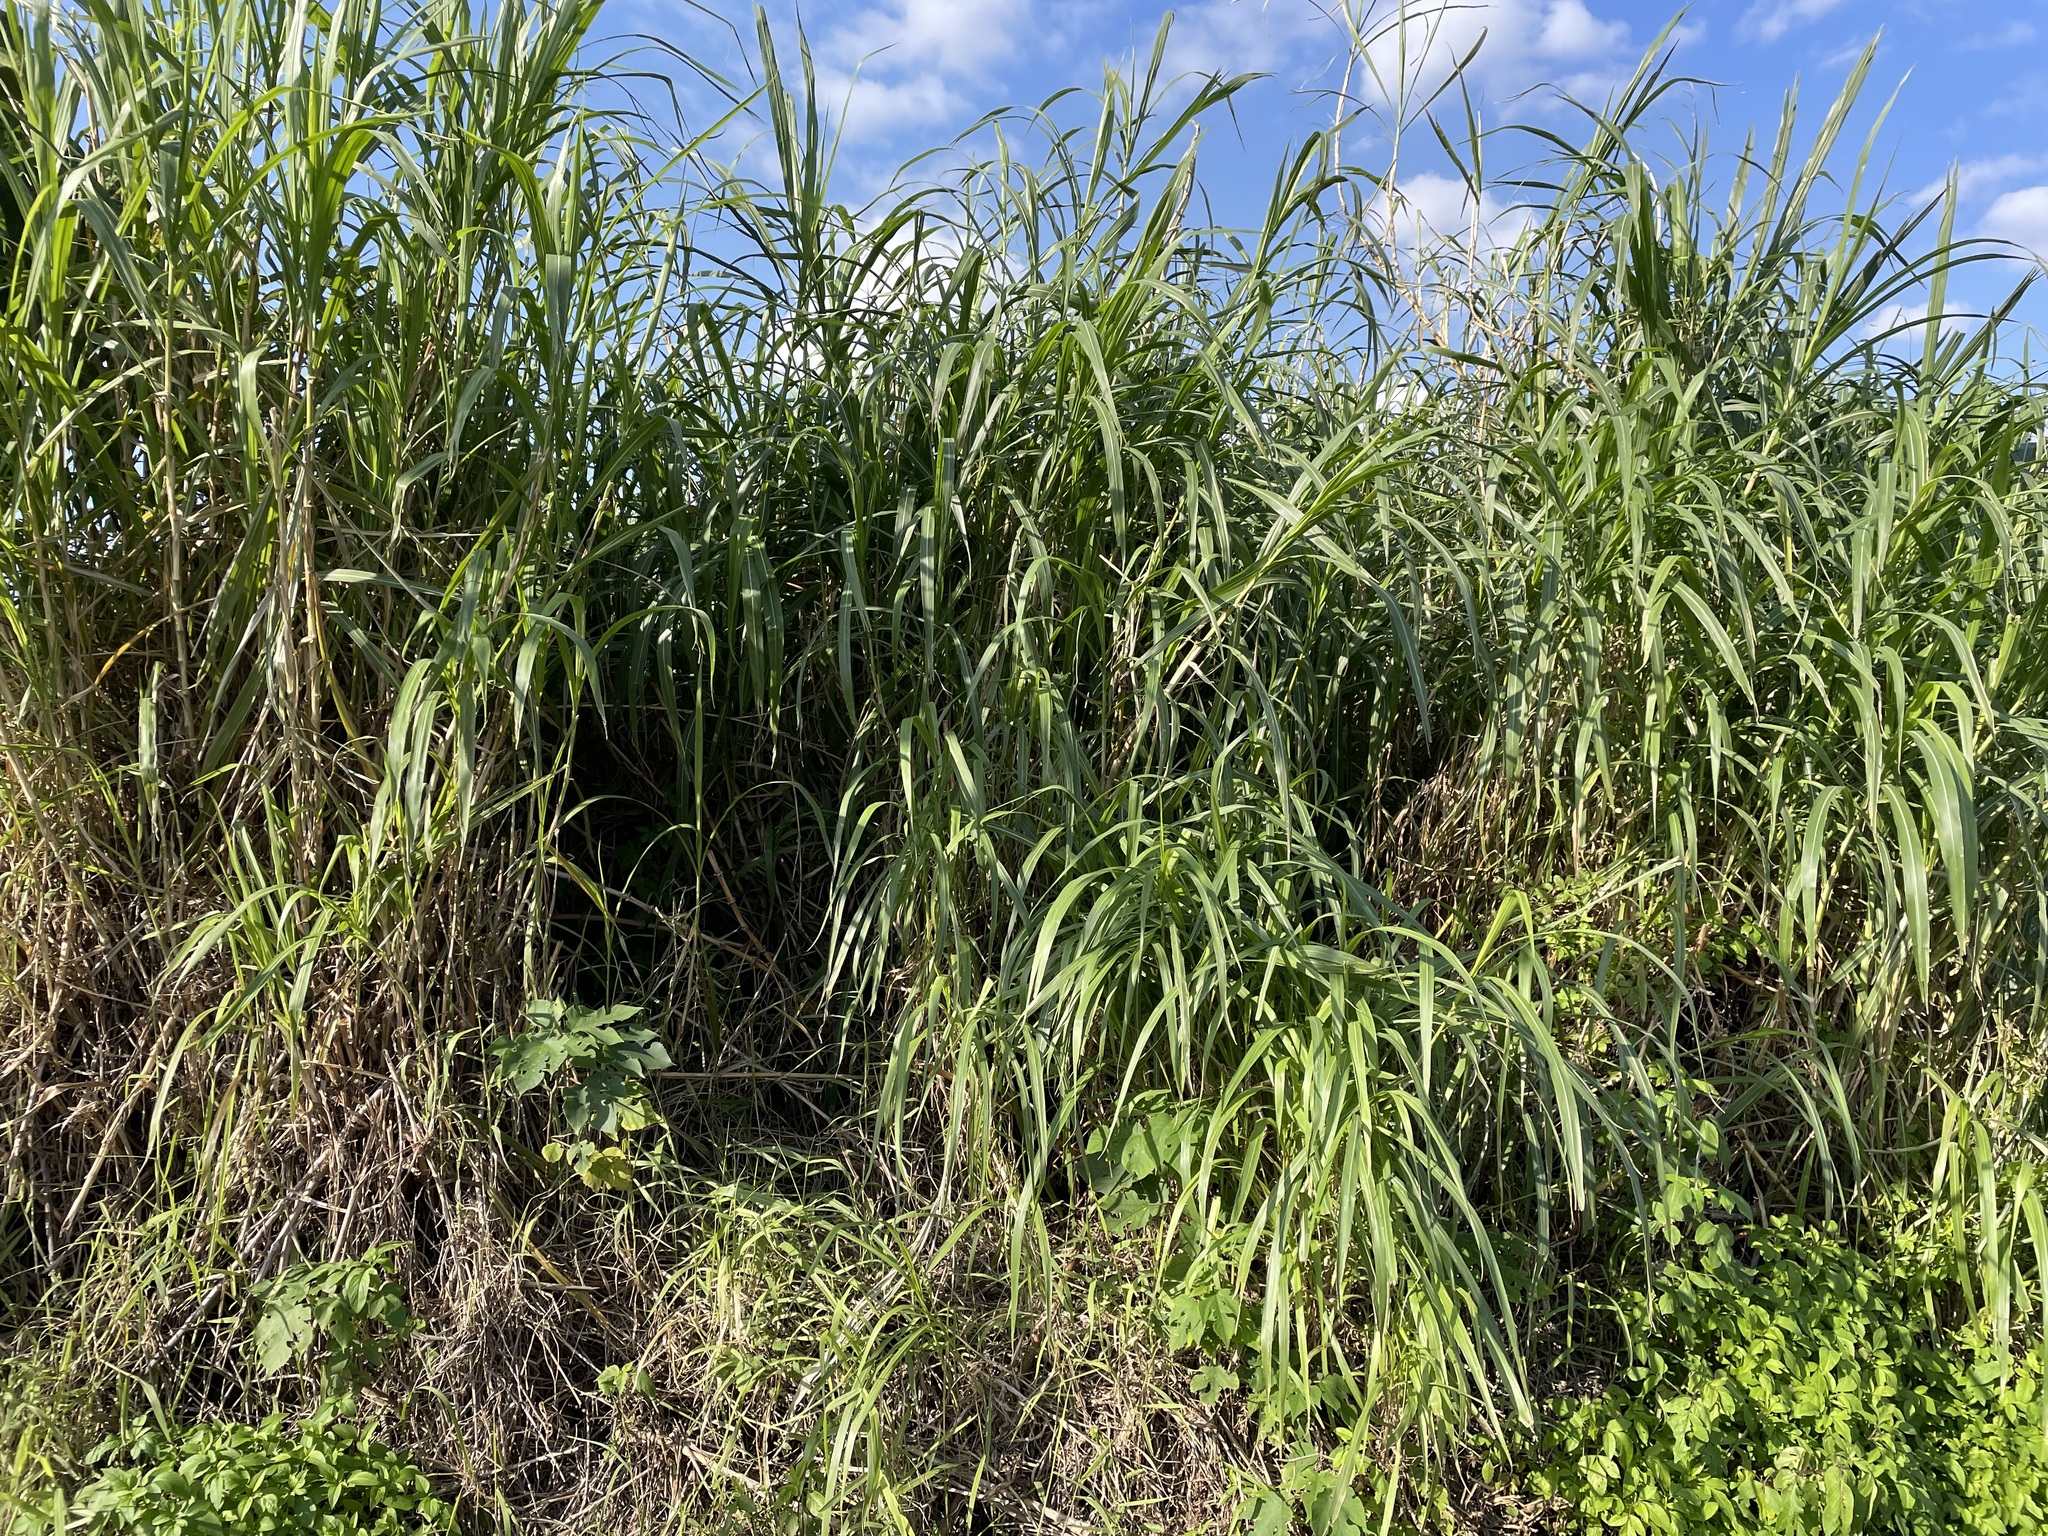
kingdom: Plantae
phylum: Tracheophyta
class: Liliopsida
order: Poales
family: Poaceae
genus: Cenchrus
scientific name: Cenchrus purpureus
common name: Elephant grass
